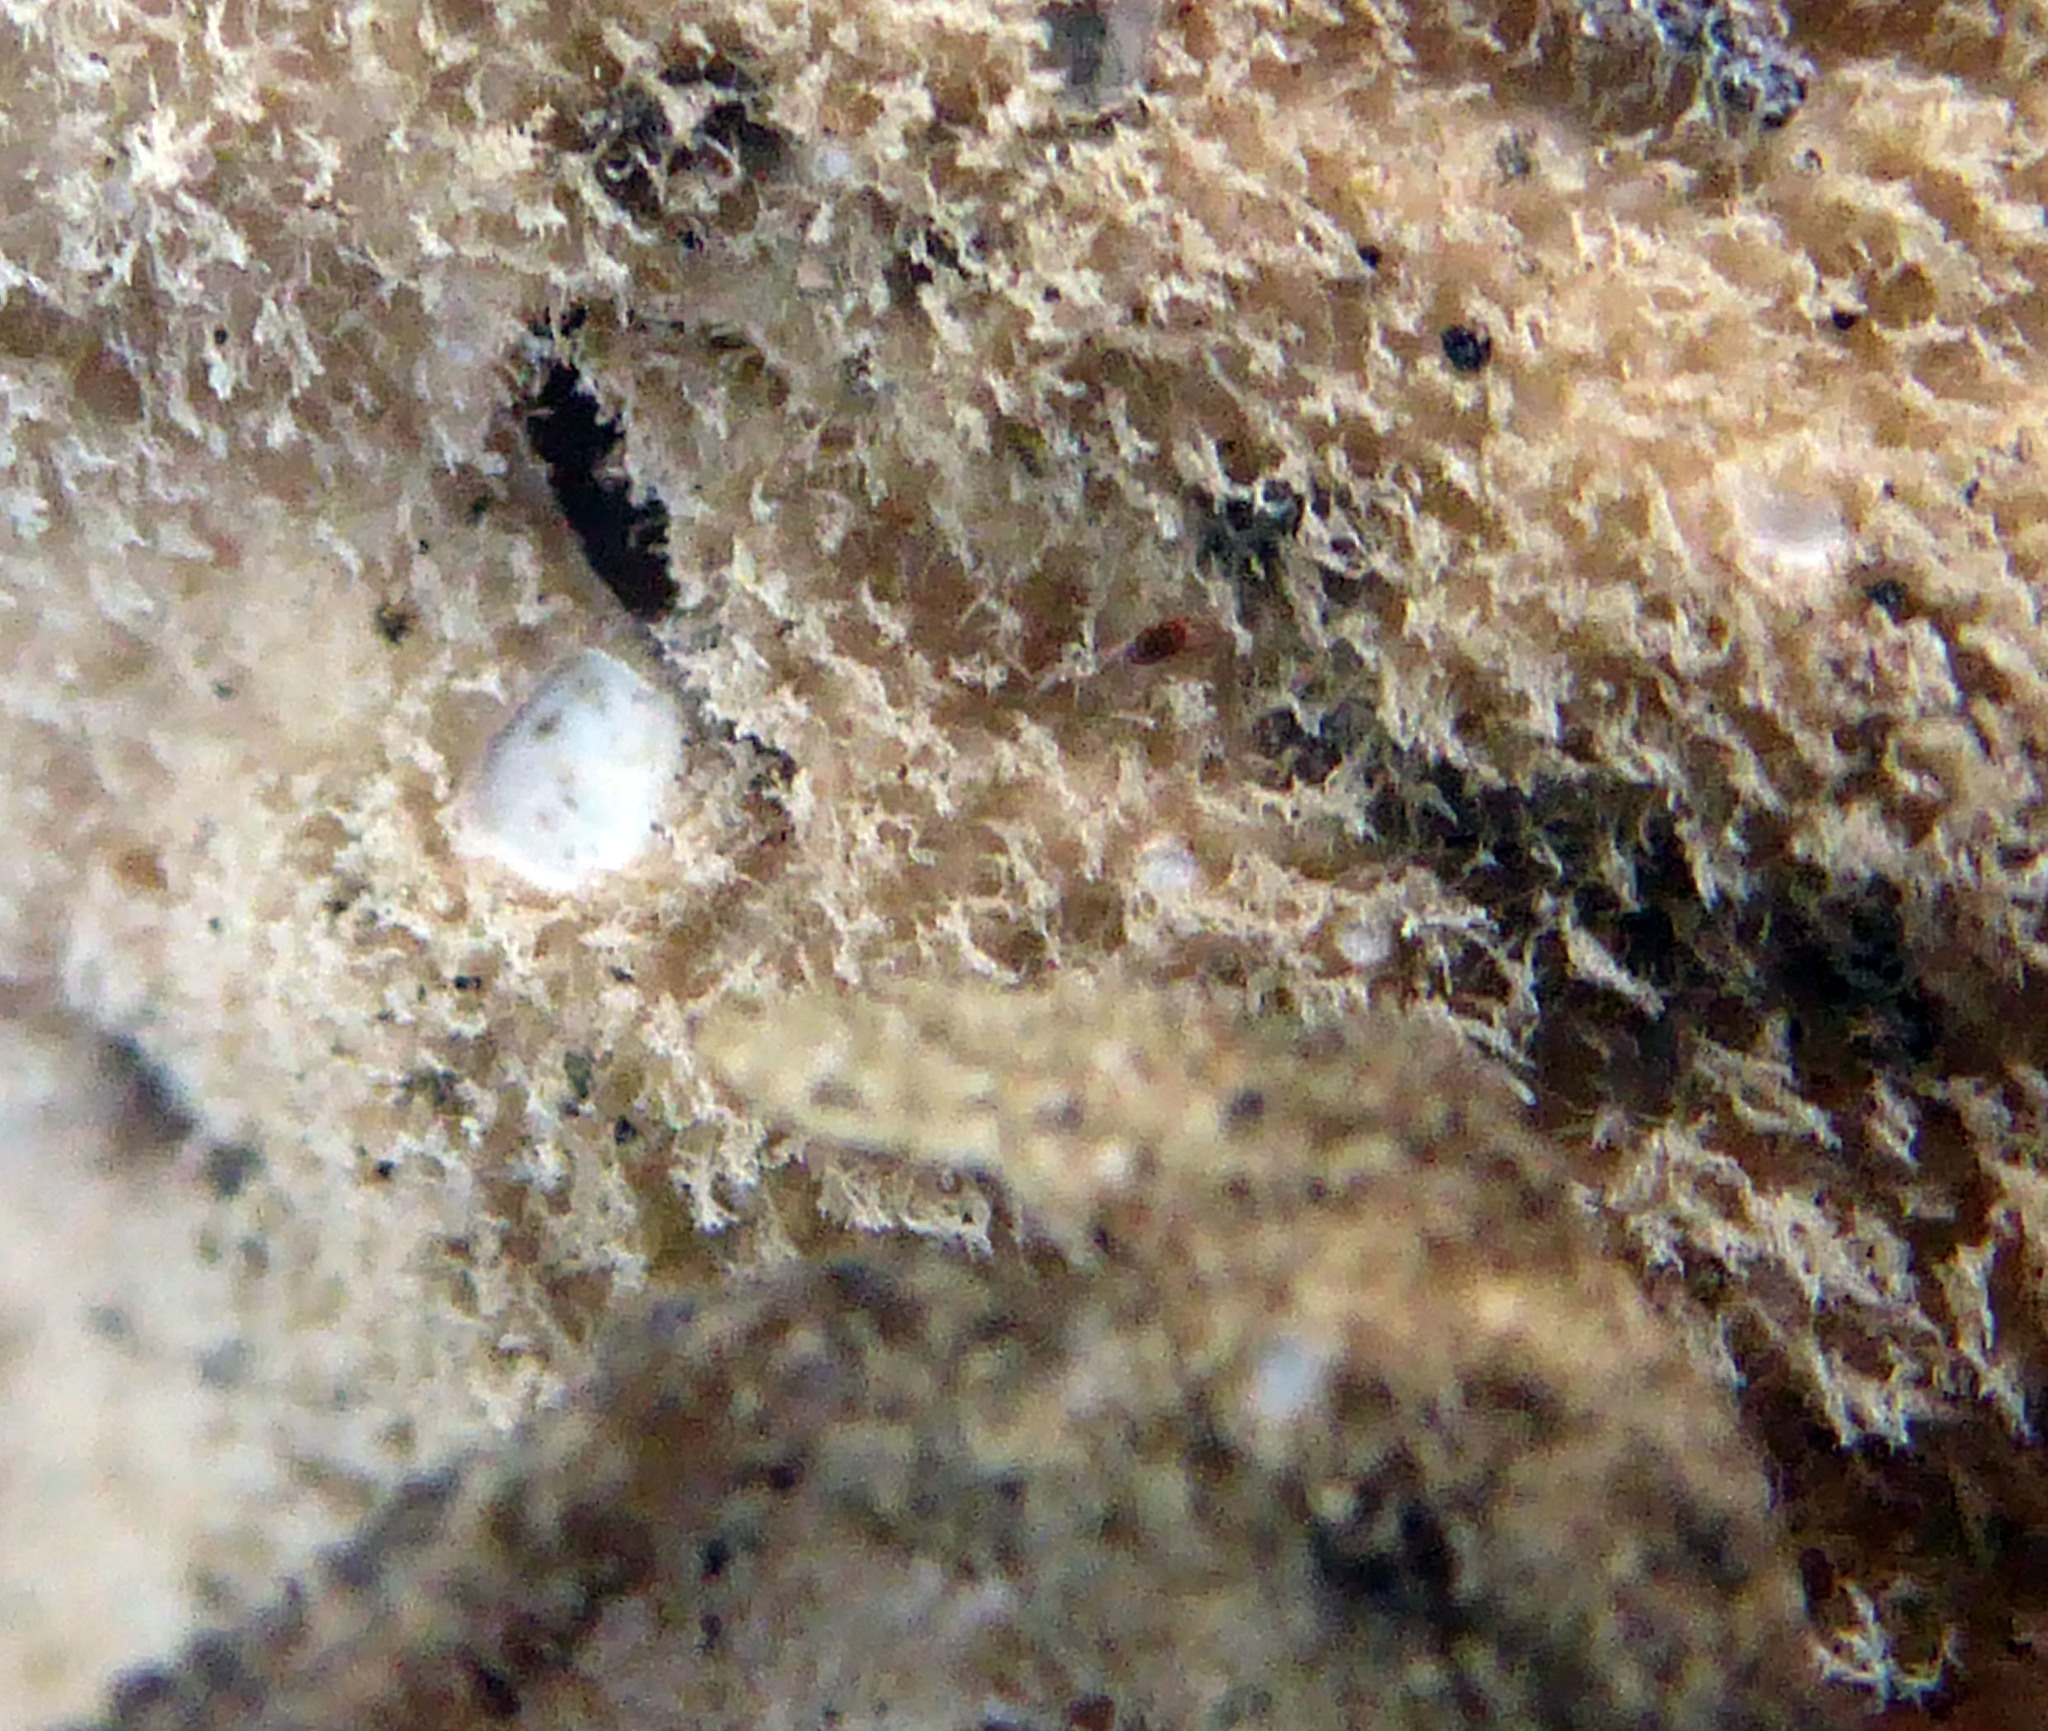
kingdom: Fungi
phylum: Ascomycota
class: Lecanoromycetes
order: Peltigerales
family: Lobariaceae
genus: Sticta
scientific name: Sticta fuliginosa
